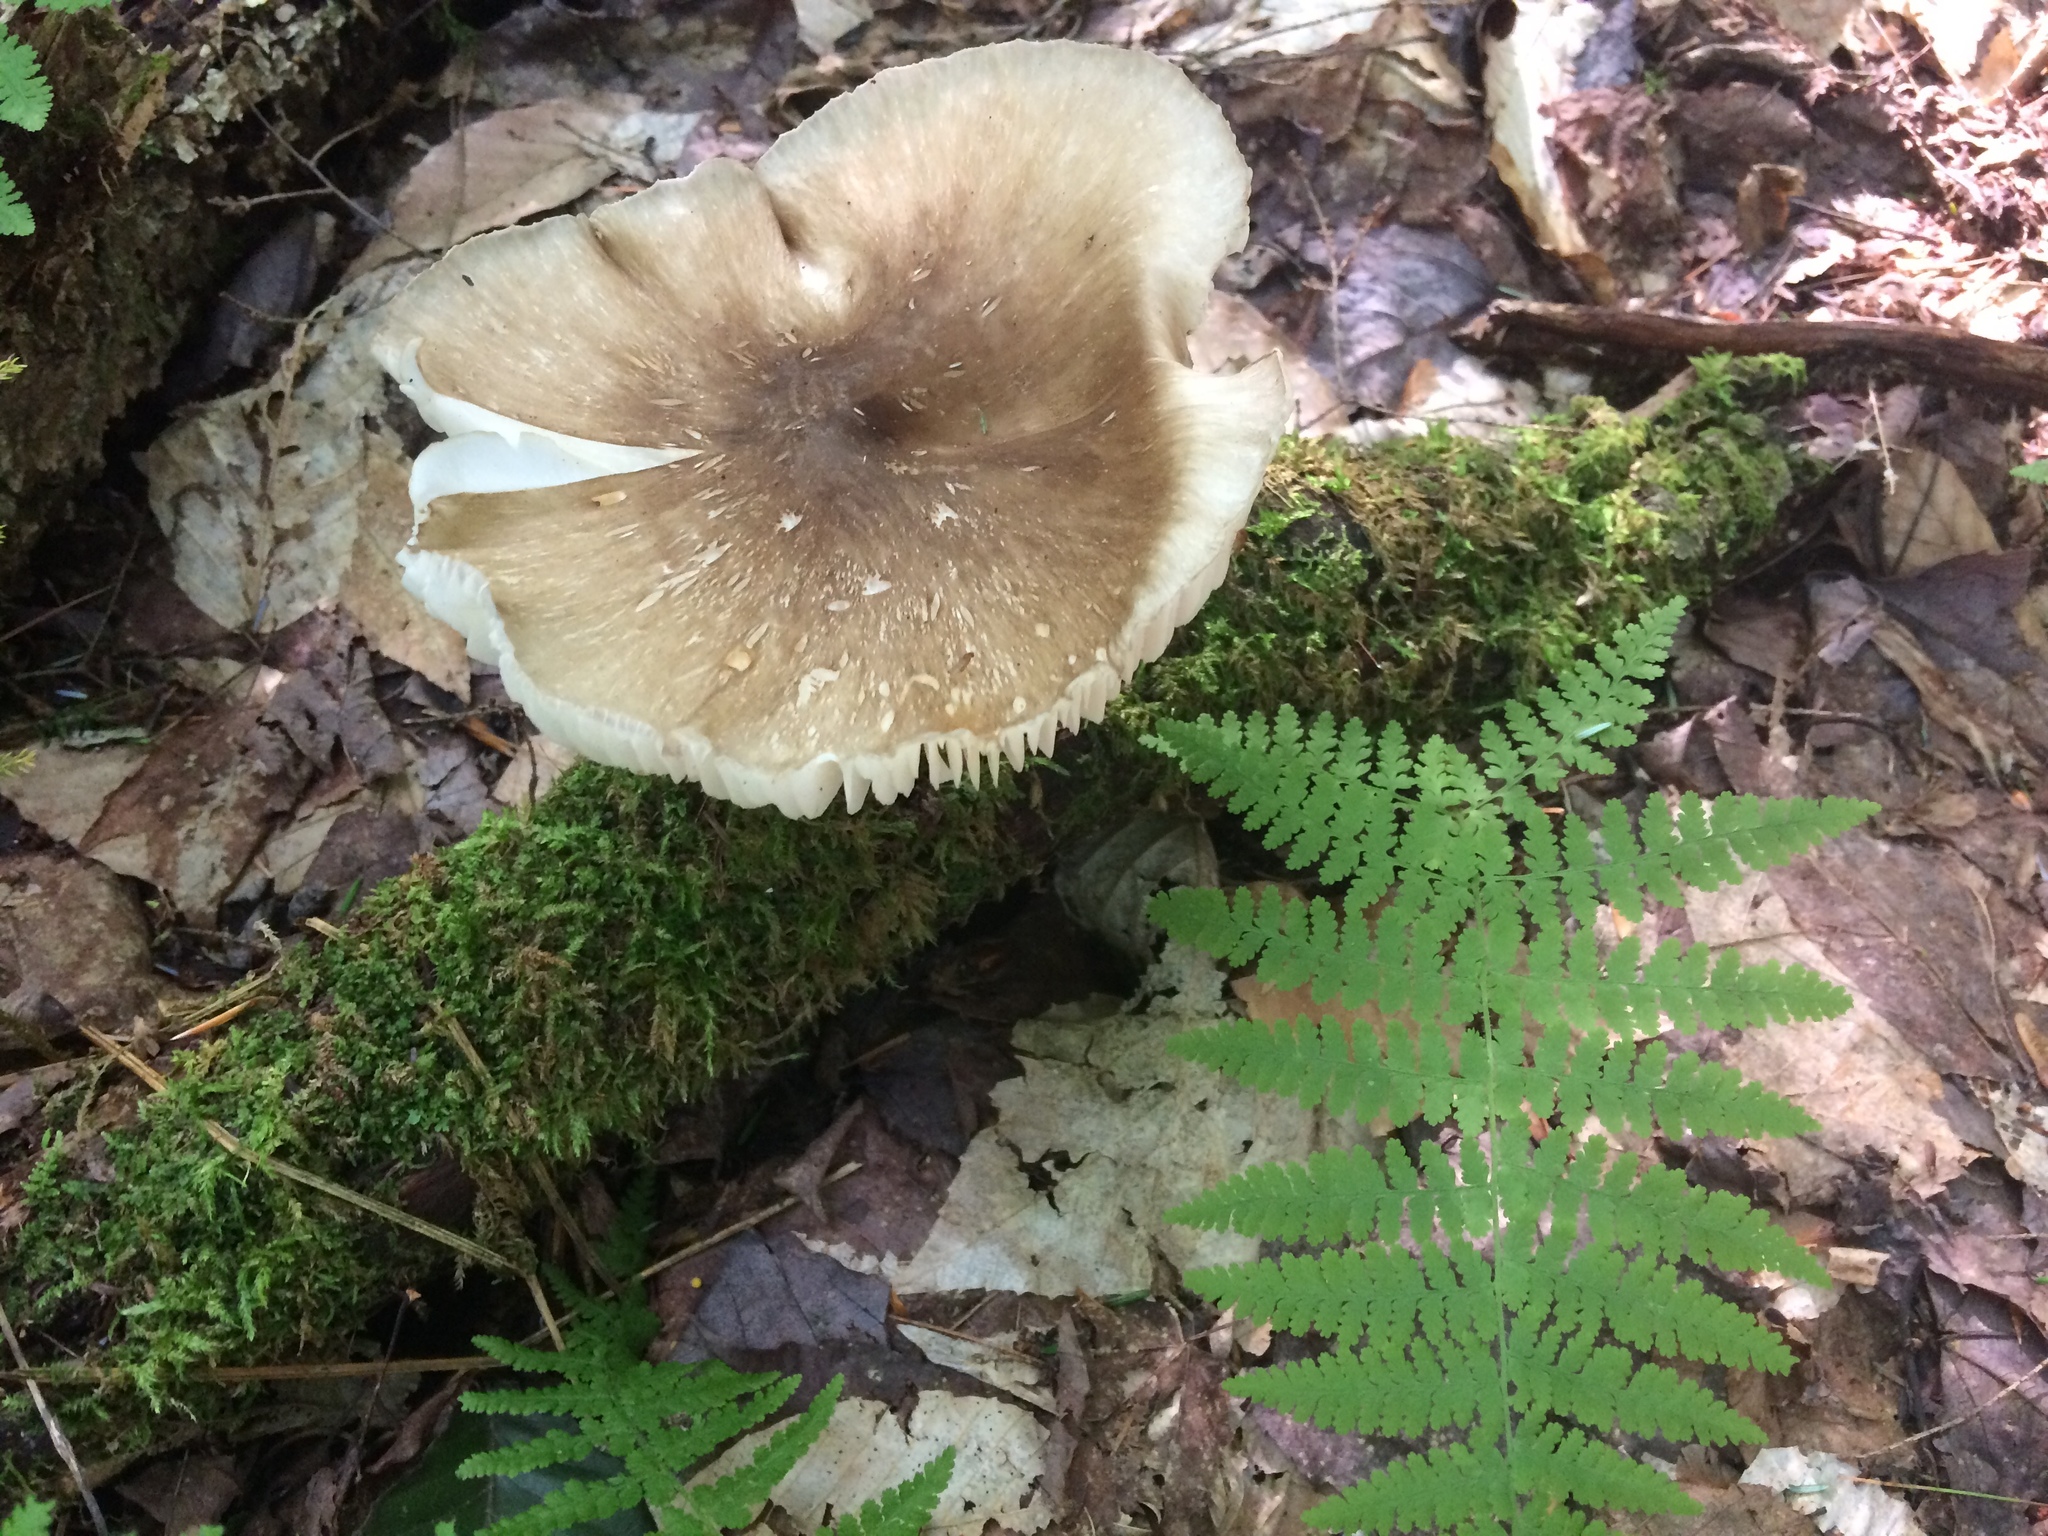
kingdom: Fungi
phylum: Basidiomycota
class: Agaricomycetes
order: Agaricales
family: Tricholomataceae
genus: Megacollybia
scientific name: Megacollybia rodmanii
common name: Eastern american platterful mushroom
